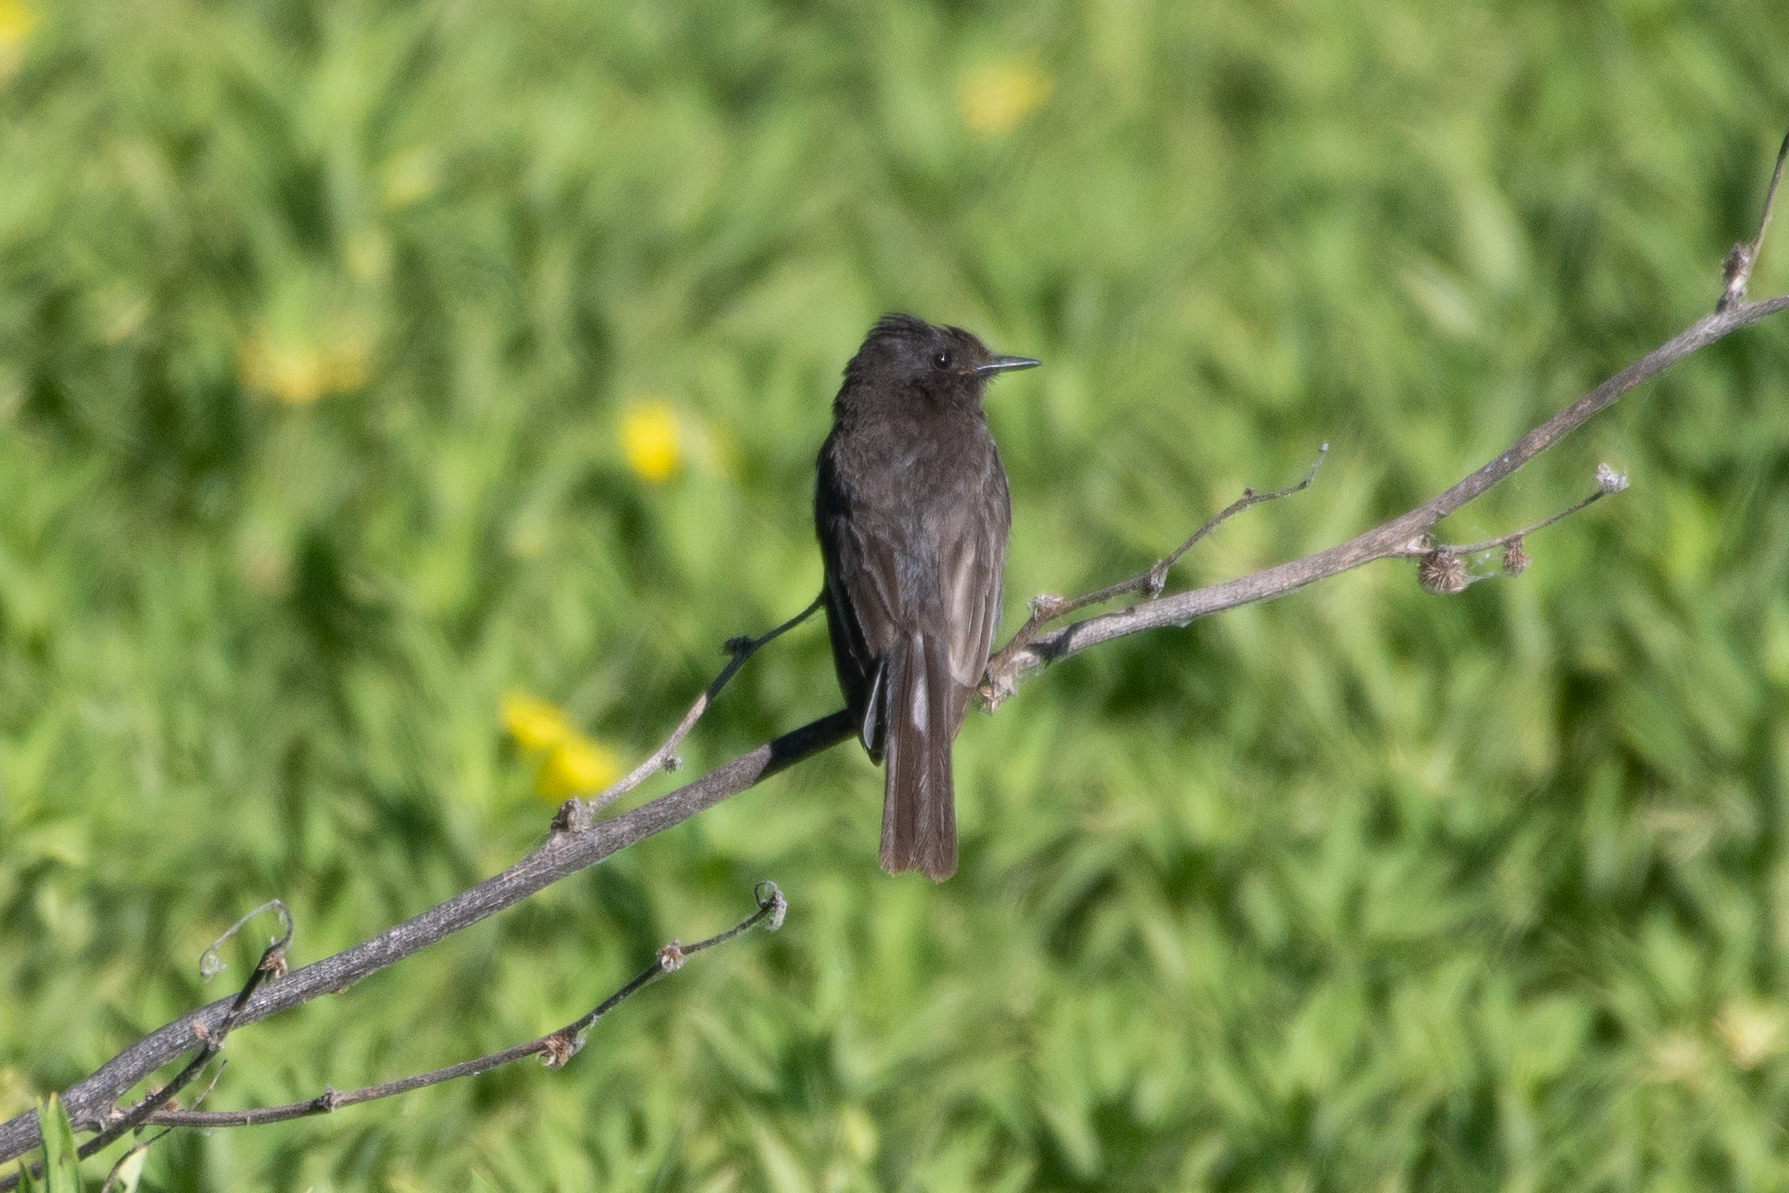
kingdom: Animalia
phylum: Chordata
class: Aves
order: Passeriformes
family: Tyrannidae
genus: Sayornis
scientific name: Sayornis nigricans
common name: Black phoebe
